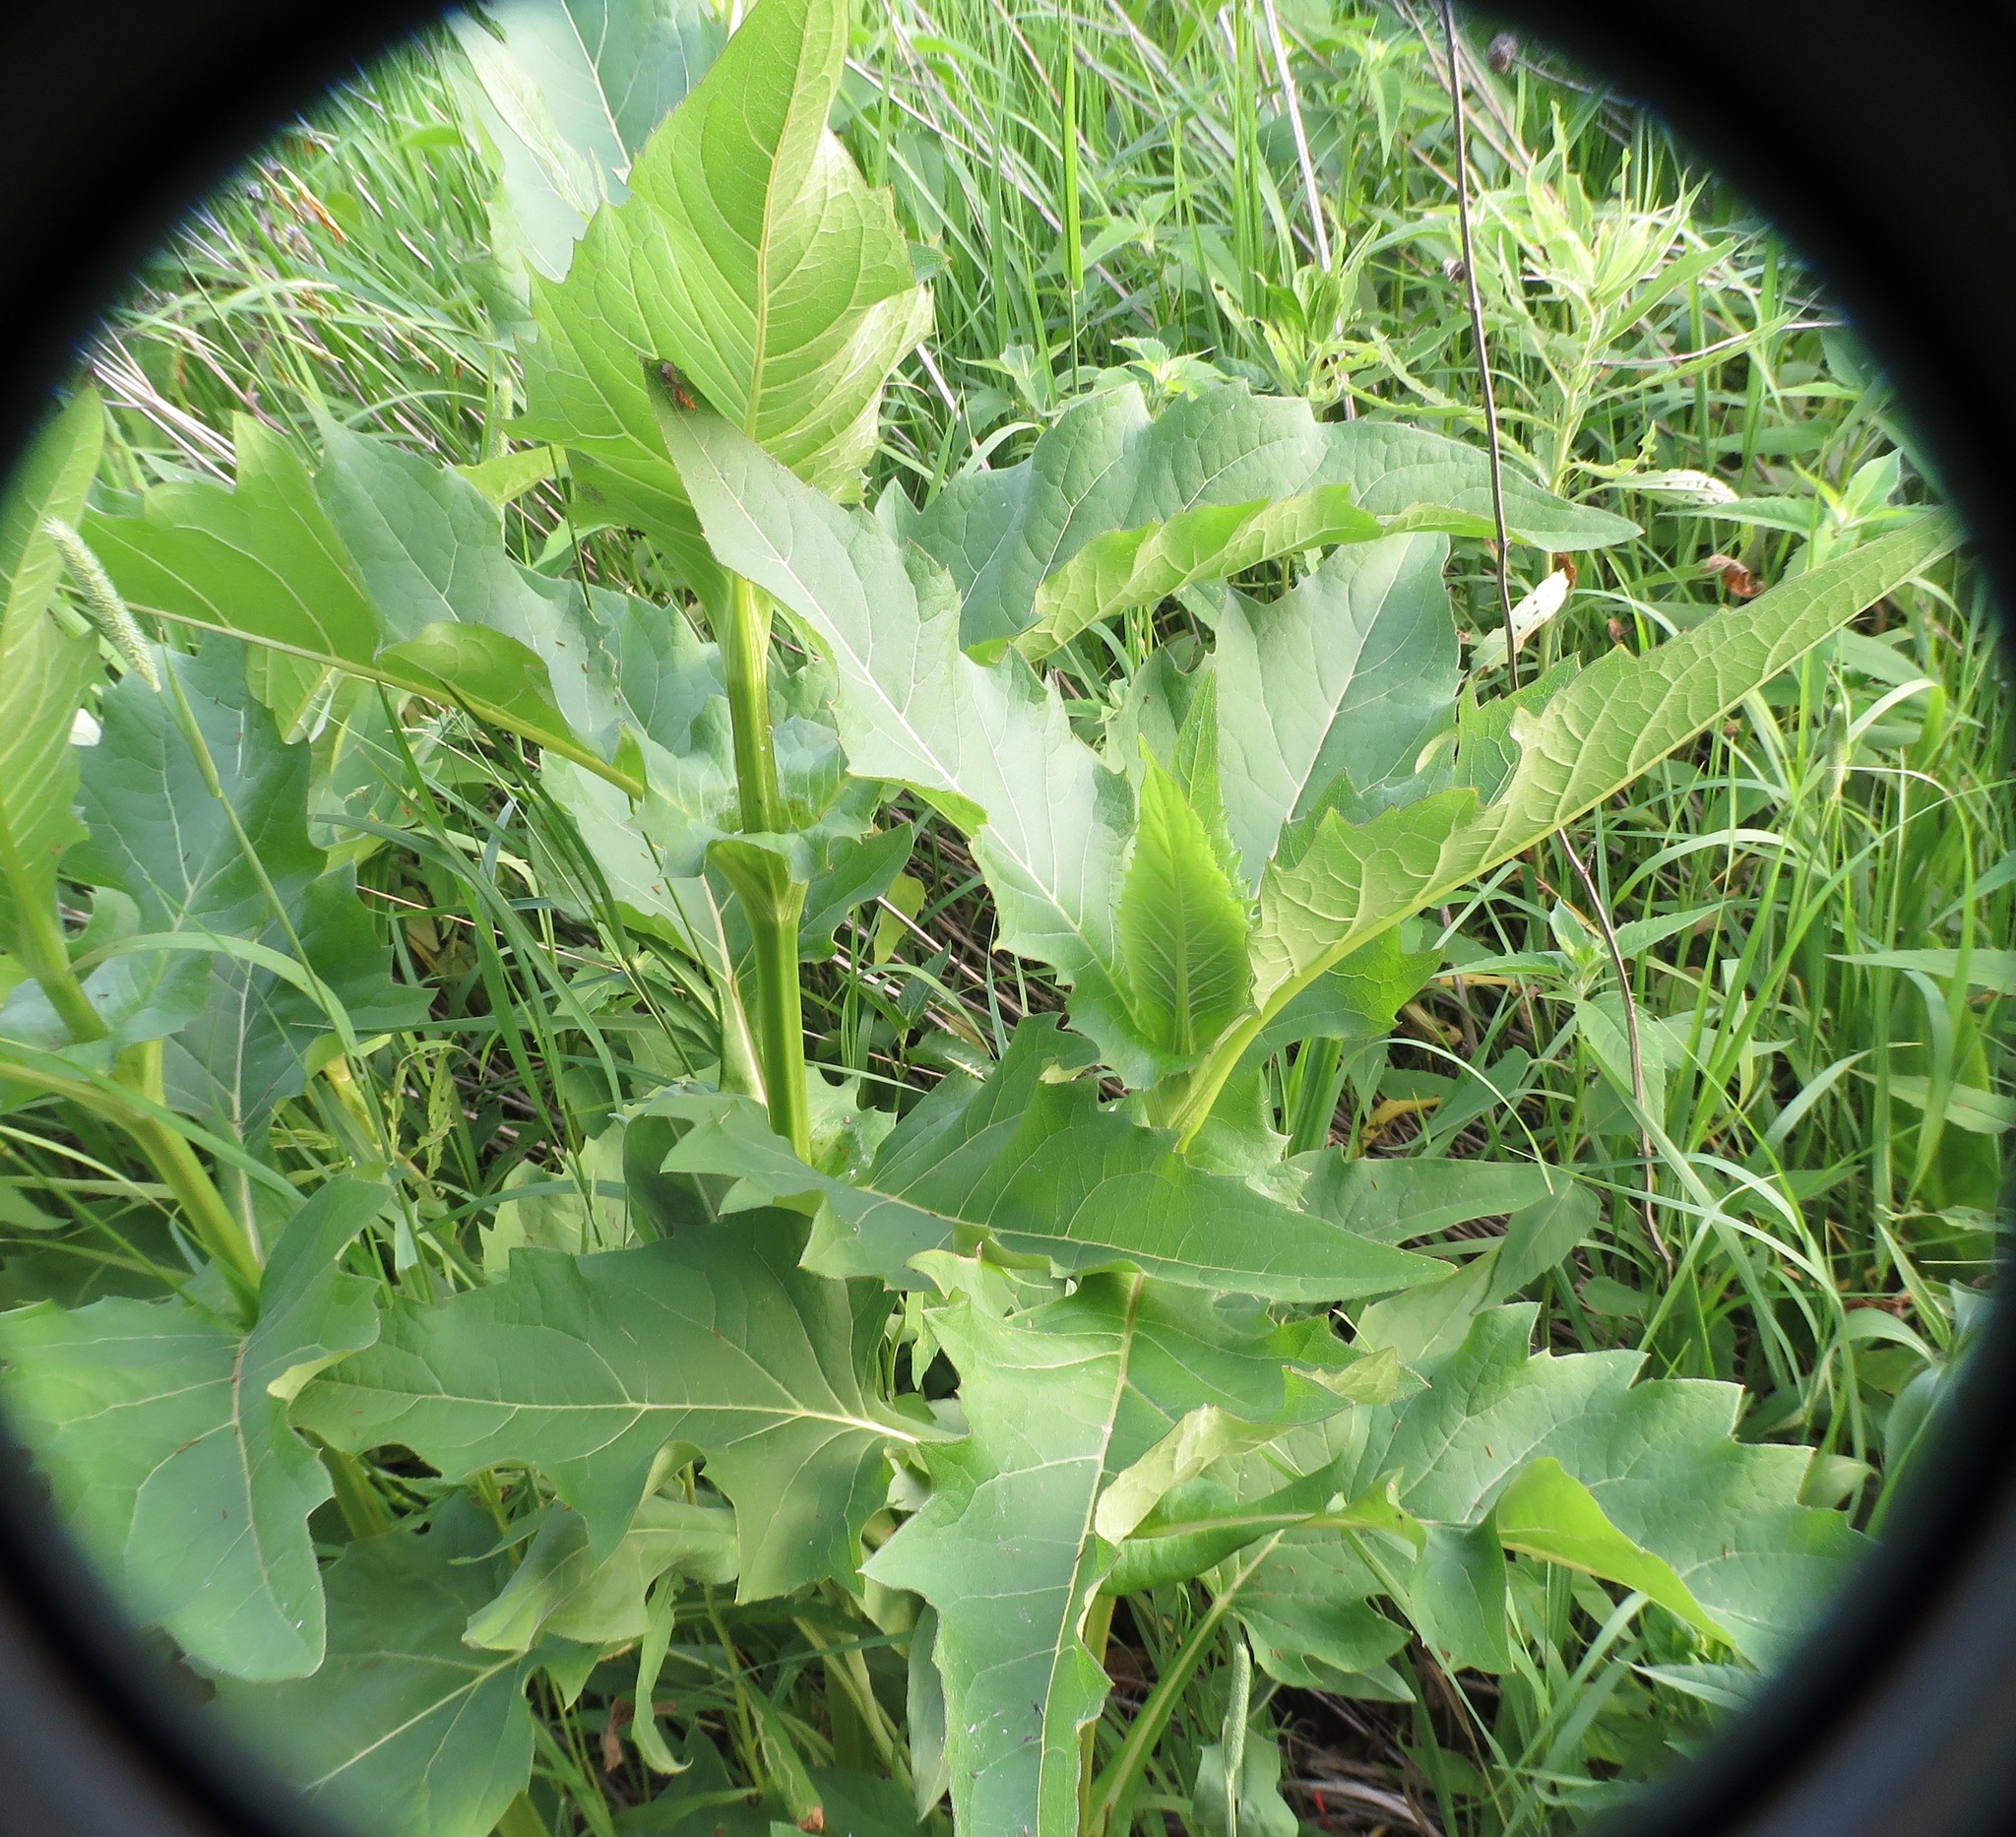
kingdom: Plantae
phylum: Tracheophyta
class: Magnoliopsida
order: Asterales
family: Asteraceae
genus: Silphium
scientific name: Silphium perfoliatum
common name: Cup-plant
